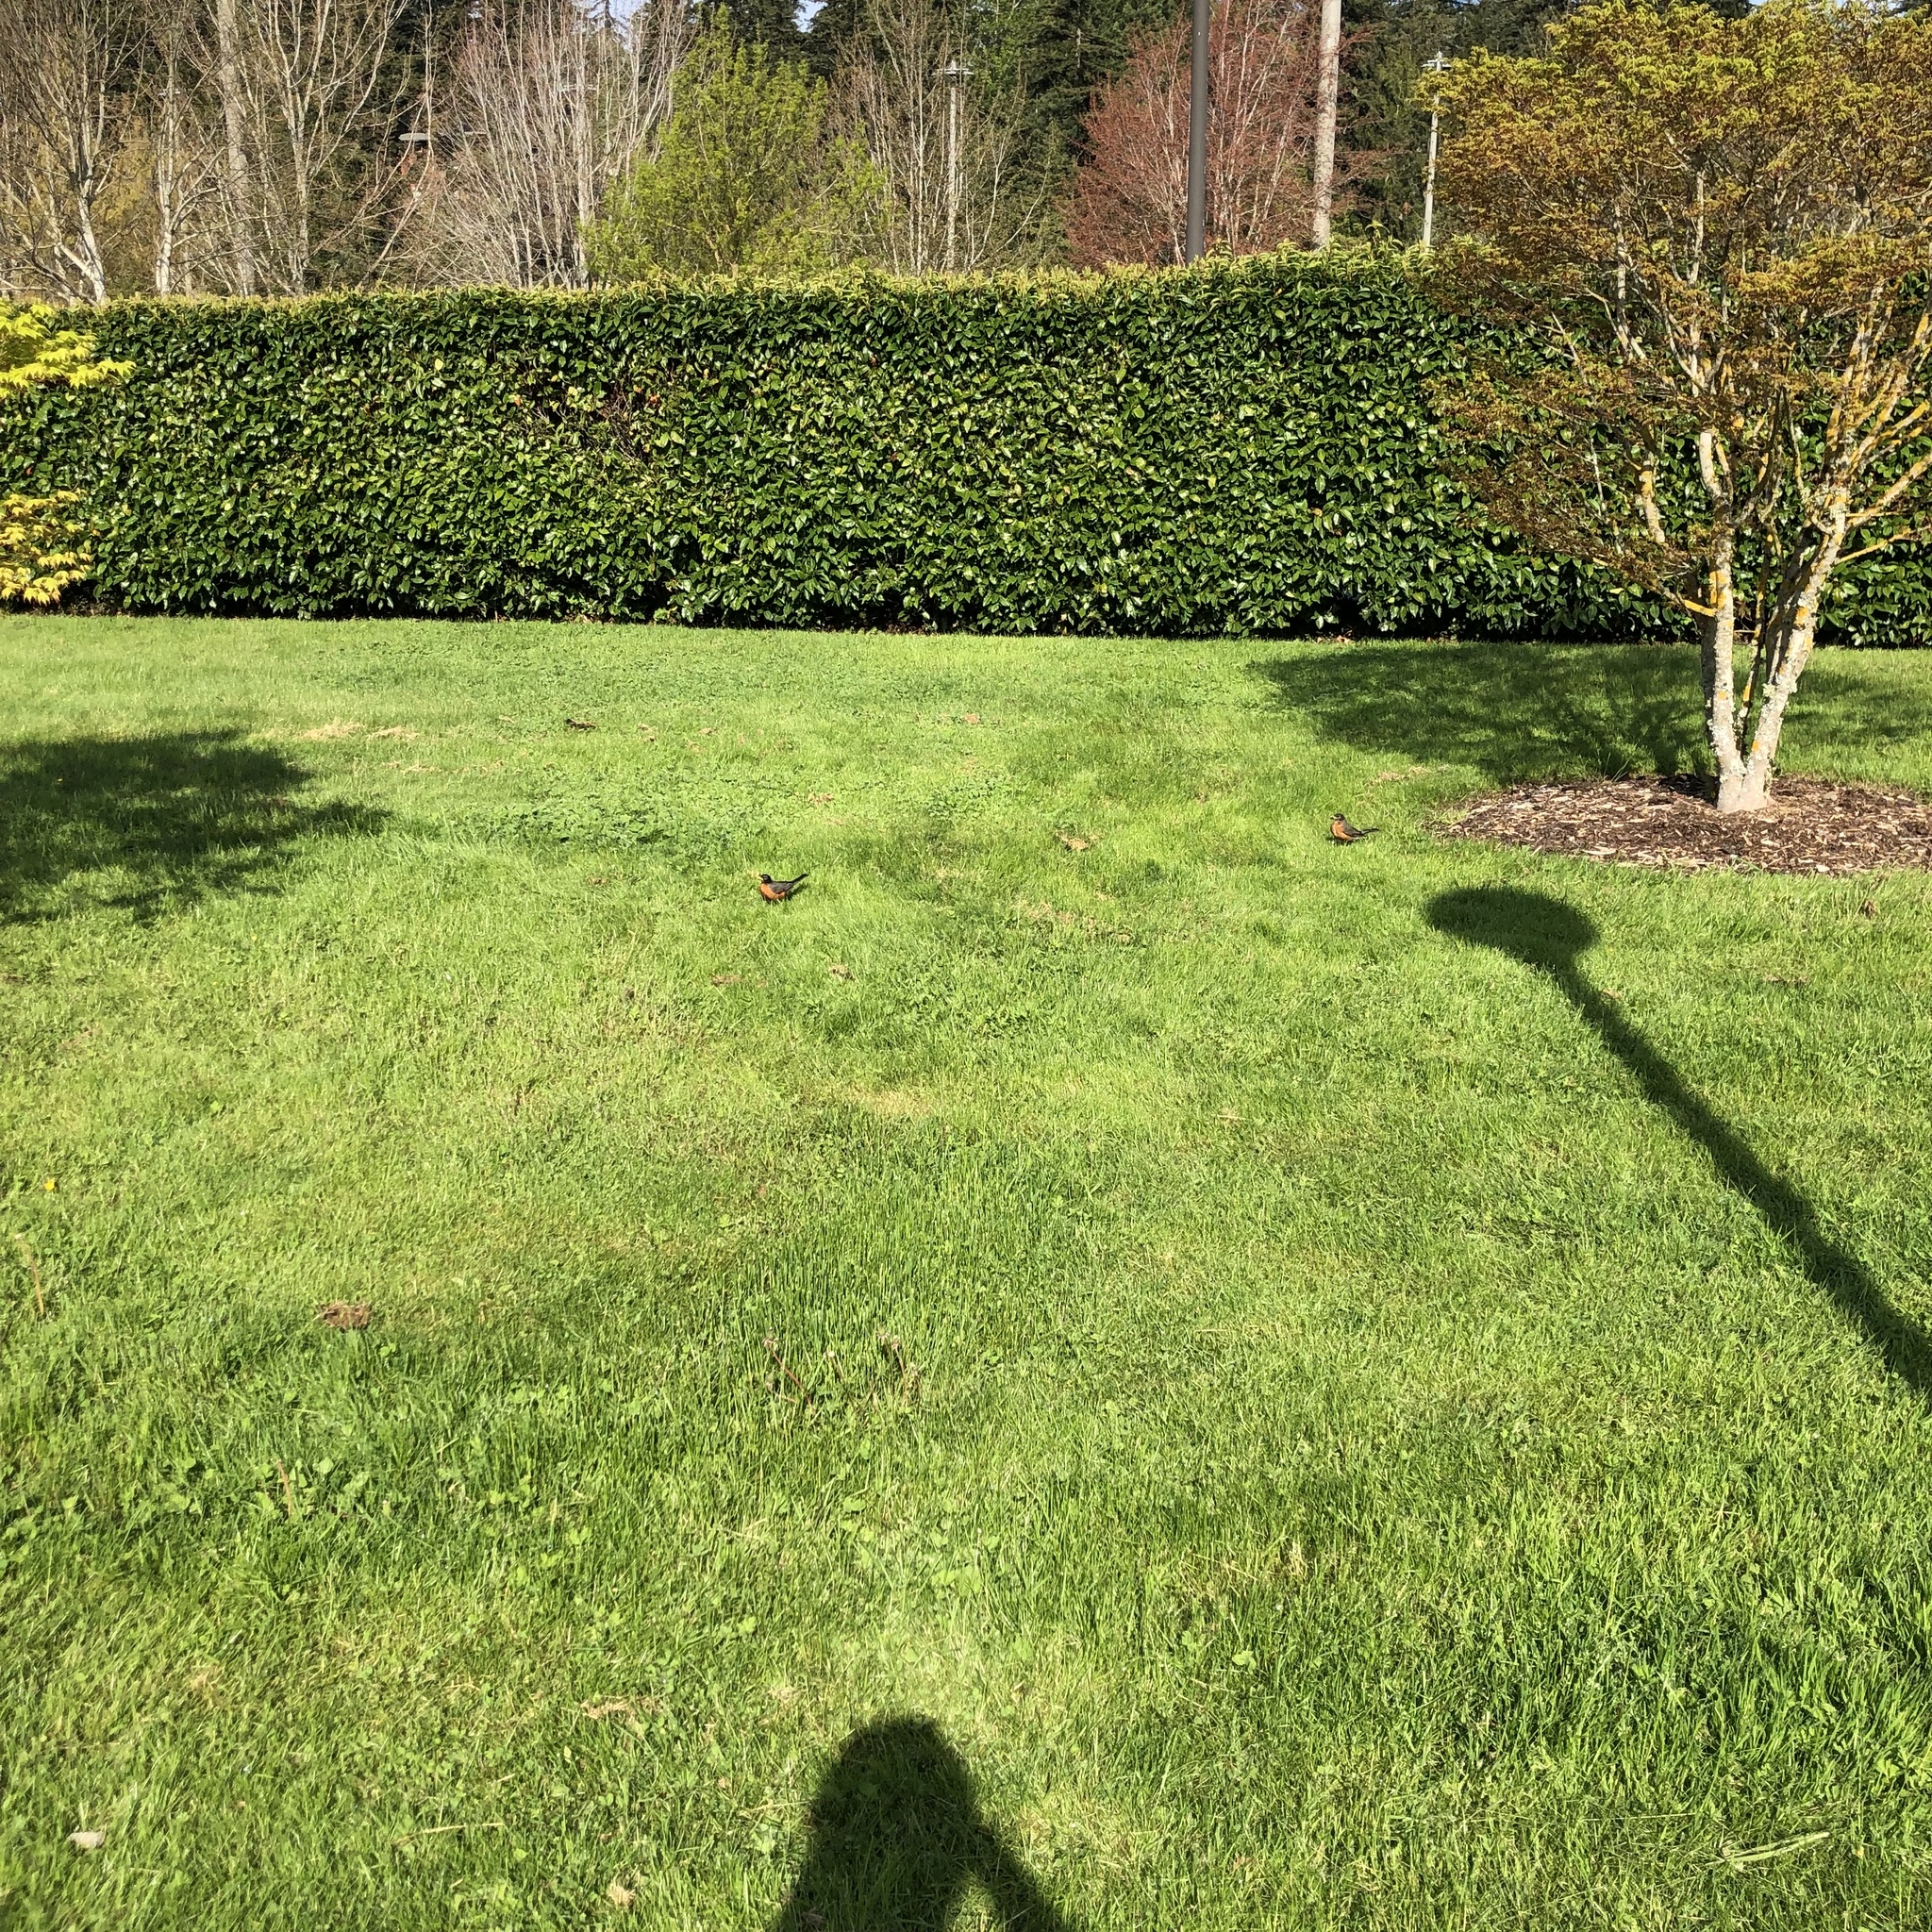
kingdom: Animalia
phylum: Chordata
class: Aves
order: Passeriformes
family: Turdidae
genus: Turdus
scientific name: Turdus migratorius
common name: American robin
